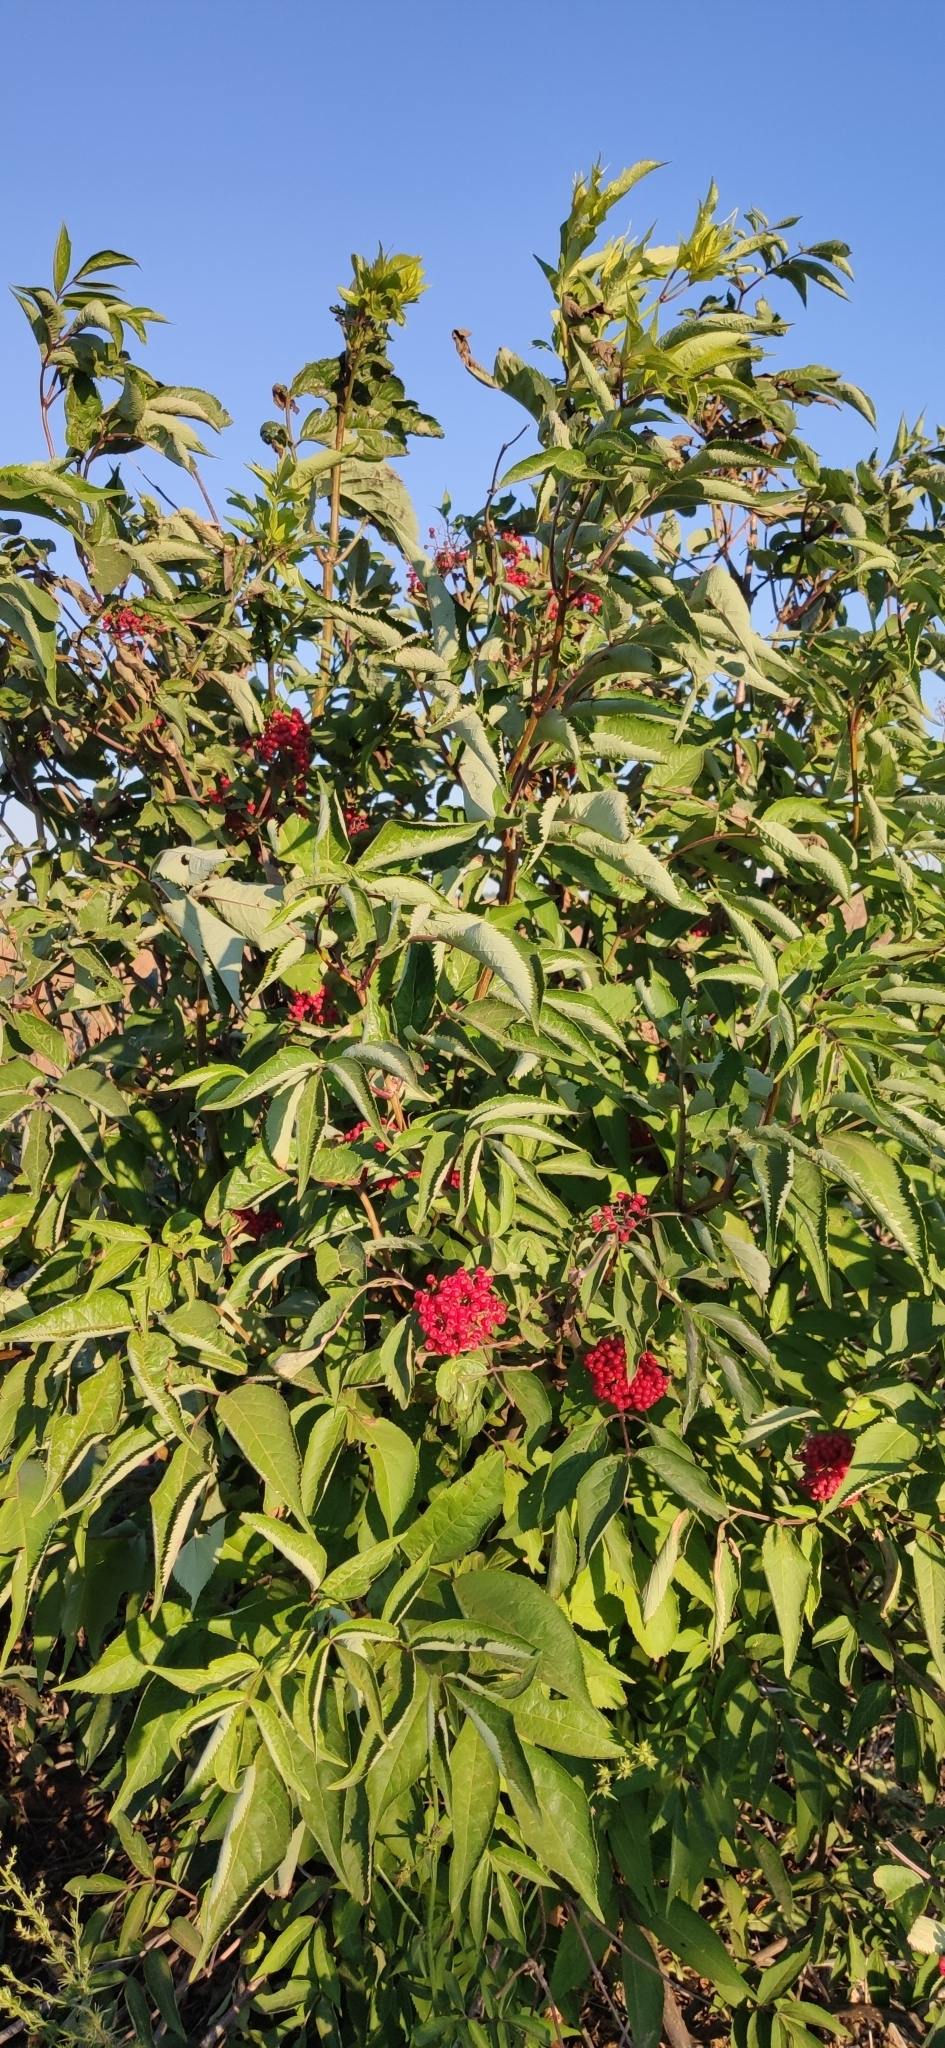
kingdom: Plantae
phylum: Tracheophyta
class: Magnoliopsida
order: Dipsacales
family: Viburnaceae
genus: Sambucus
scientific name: Sambucus racemosa
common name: Red-berried elder
